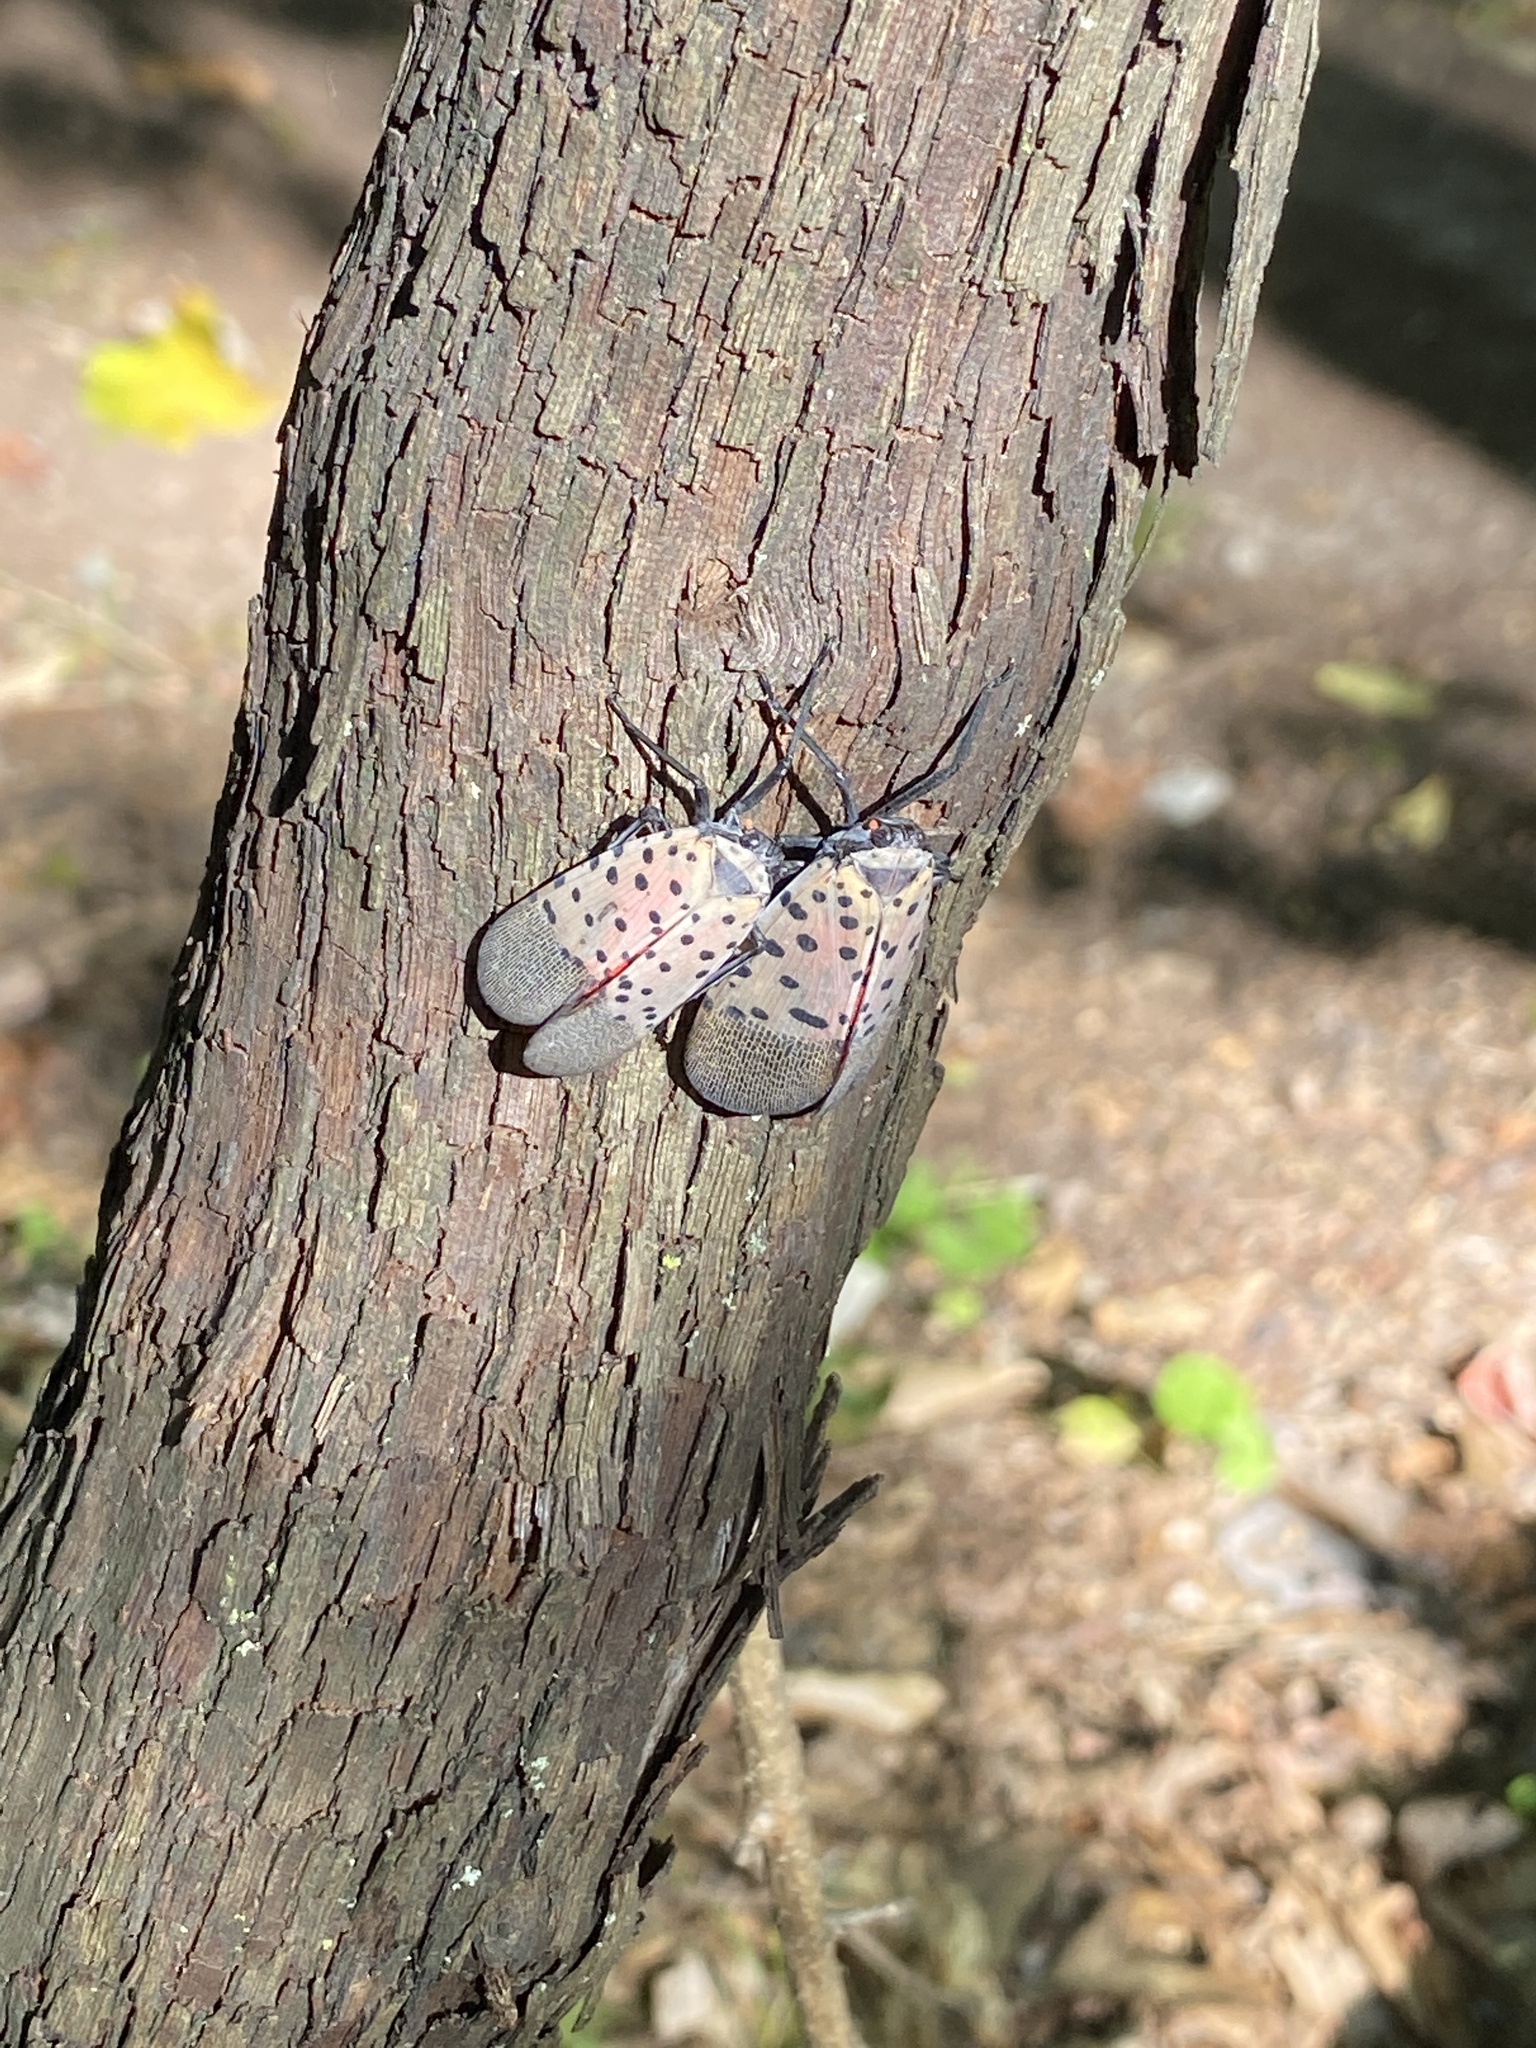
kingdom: Animalia
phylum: Arthropoda
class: Insecta
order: Hemiptera
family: Fulgoridae
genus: Lycorma
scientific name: Lycorma delicatula
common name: Spotted lanternfly
